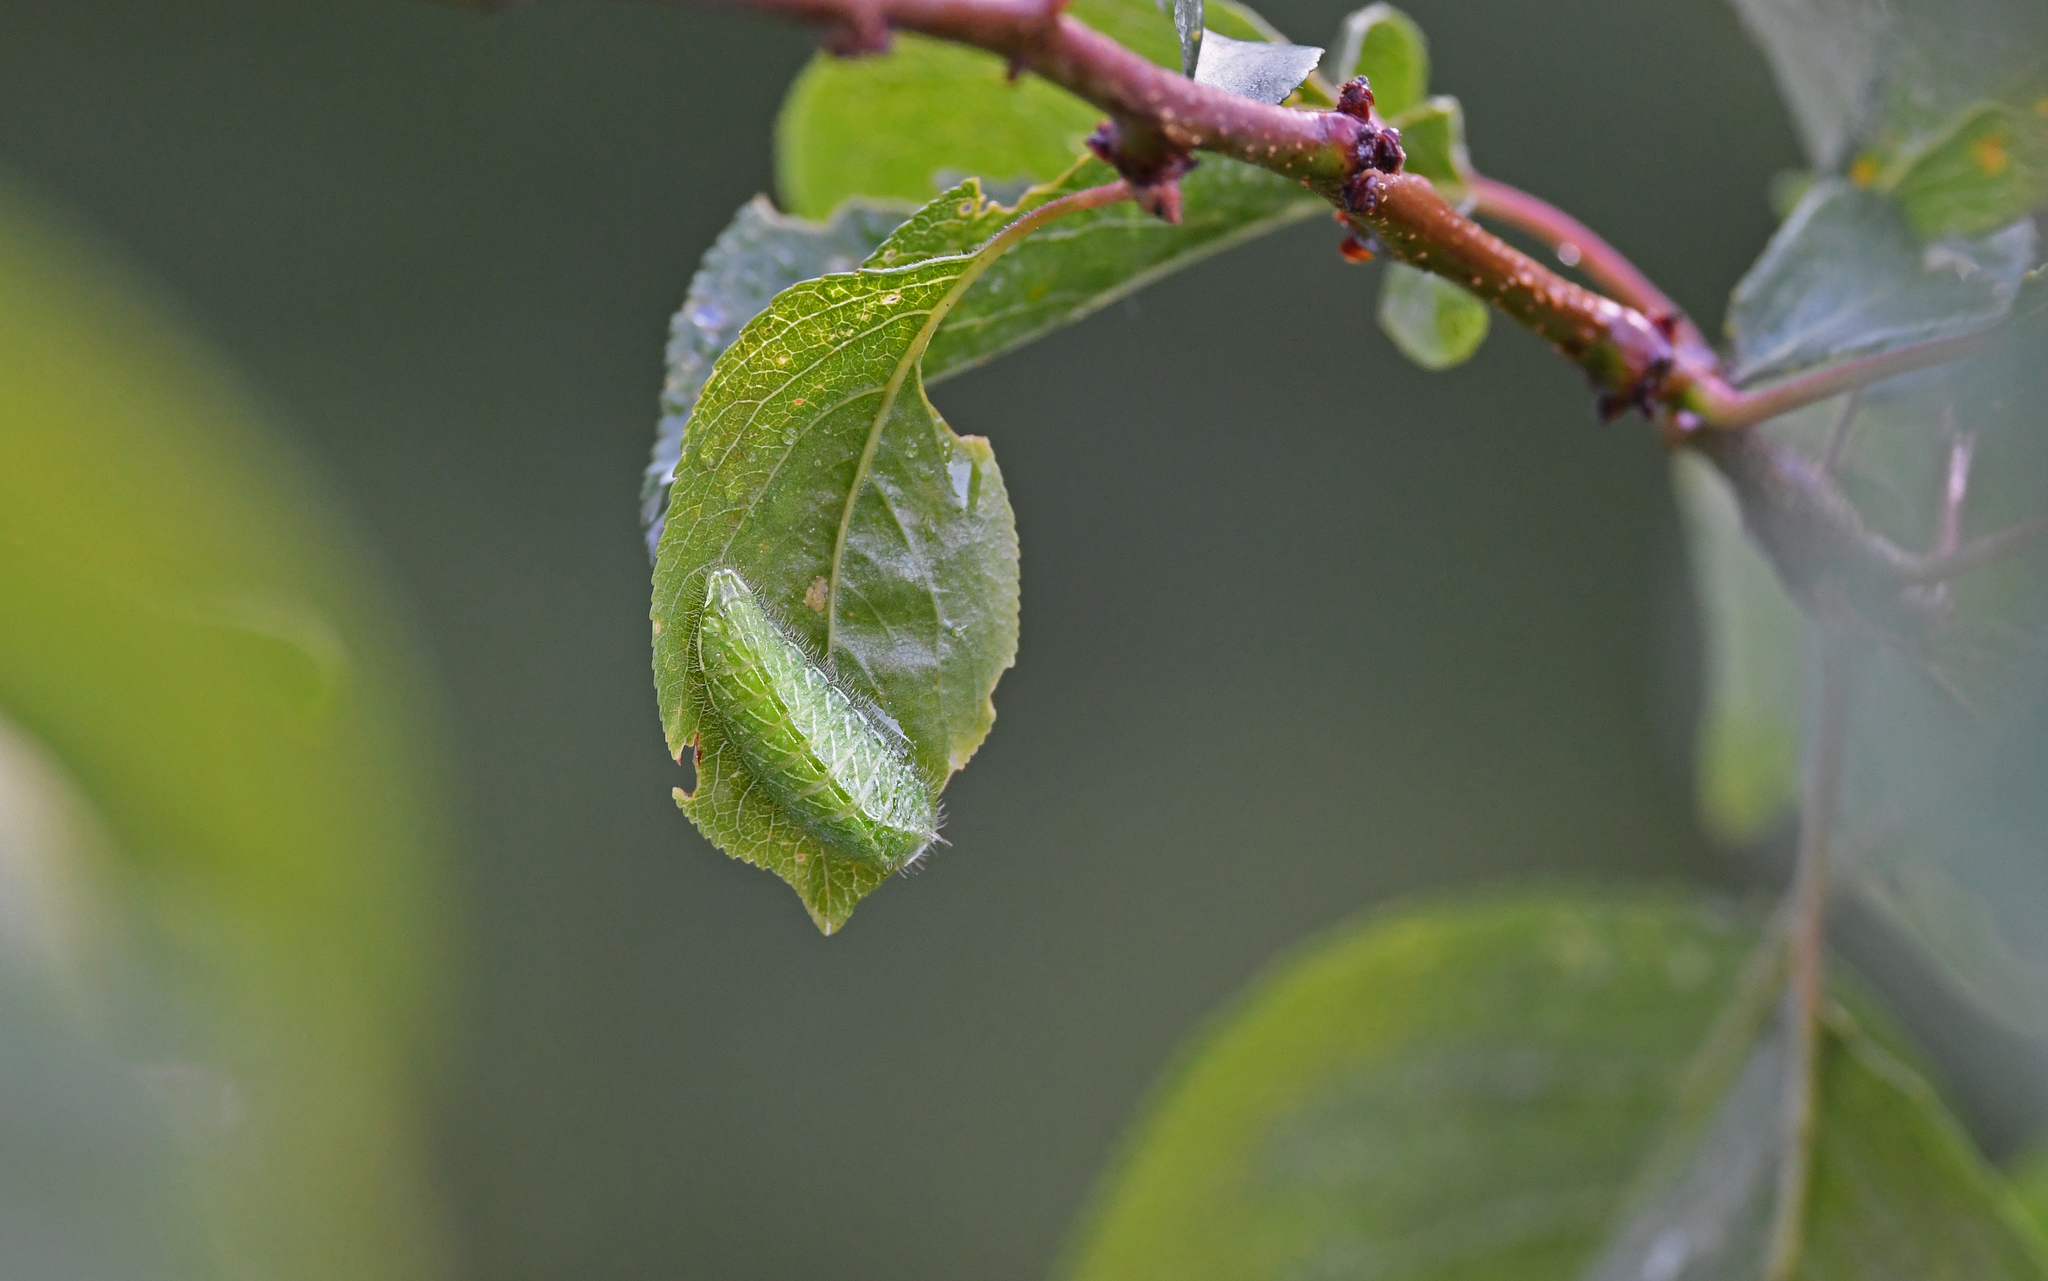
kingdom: Animalia
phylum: Arthropoda
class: Insecta
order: Lepidoptera
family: Lycaenidae
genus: Thecla
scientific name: Thecla betulae
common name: Brown hairstreak
